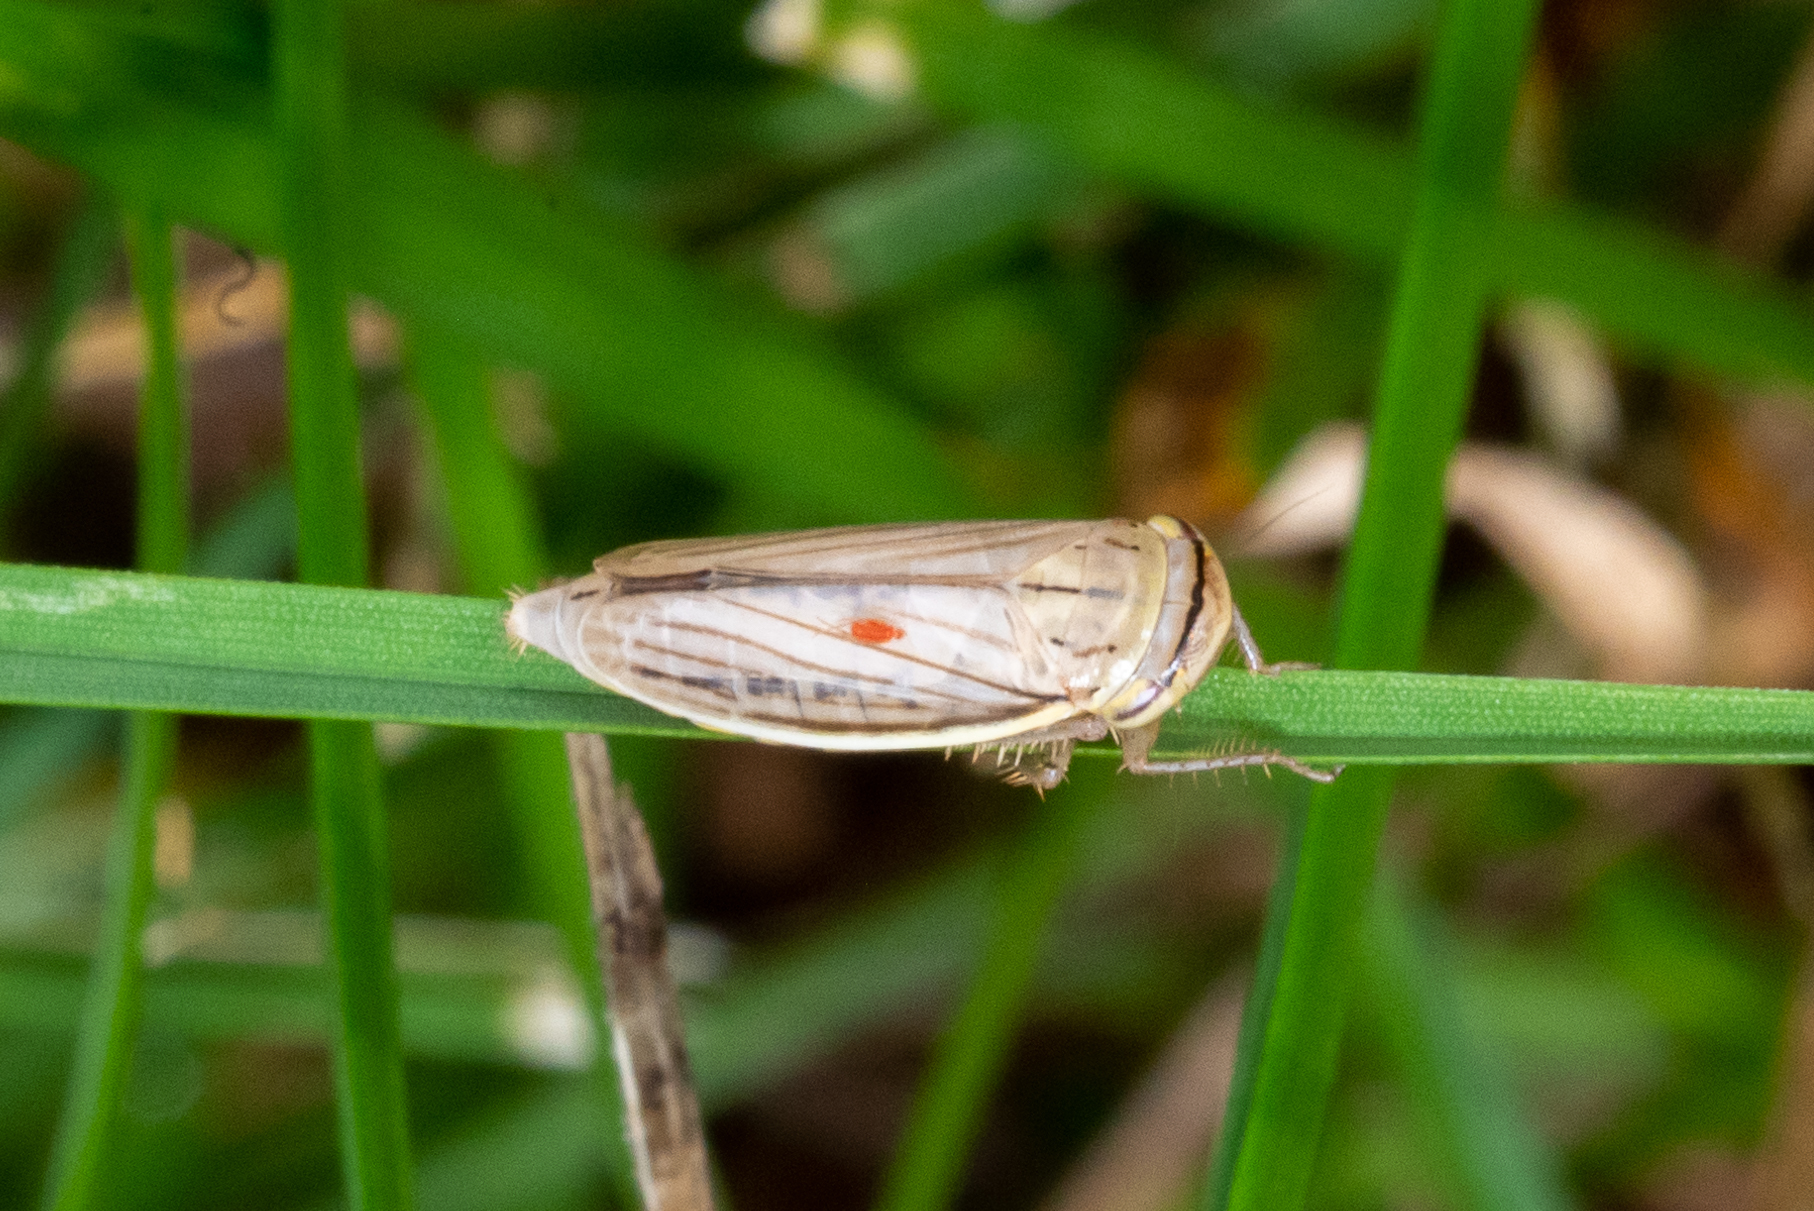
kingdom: Animalia
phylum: Arthropoda
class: Insecta
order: Hemiptera
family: Cicadellidae
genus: Athysanus
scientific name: Athysanus argentarius
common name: Silver leafhopper
